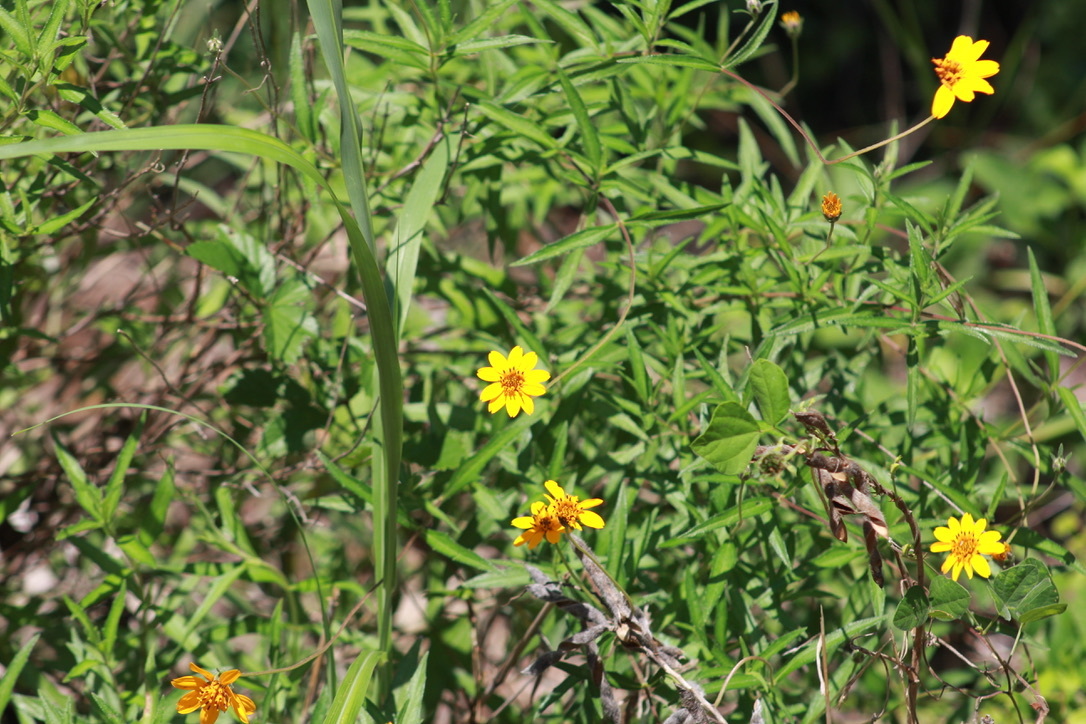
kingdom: Plantae
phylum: Tracheophyta
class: Magnoliopsida
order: Asterales
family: Asteraceae
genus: Wedelia
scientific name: Wedelia acapulcensis
